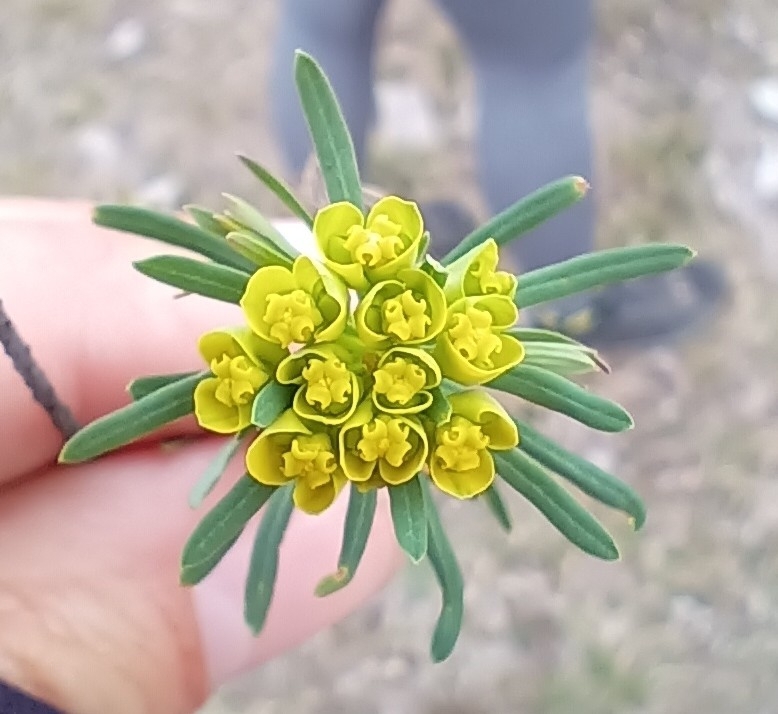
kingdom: Plantae
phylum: Tracheophyta
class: Magnoliopsida
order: Malpighiales
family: Euphorbiaceae
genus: Euphorbia
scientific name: Euphorbia cyparissias
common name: Cypress spurge
